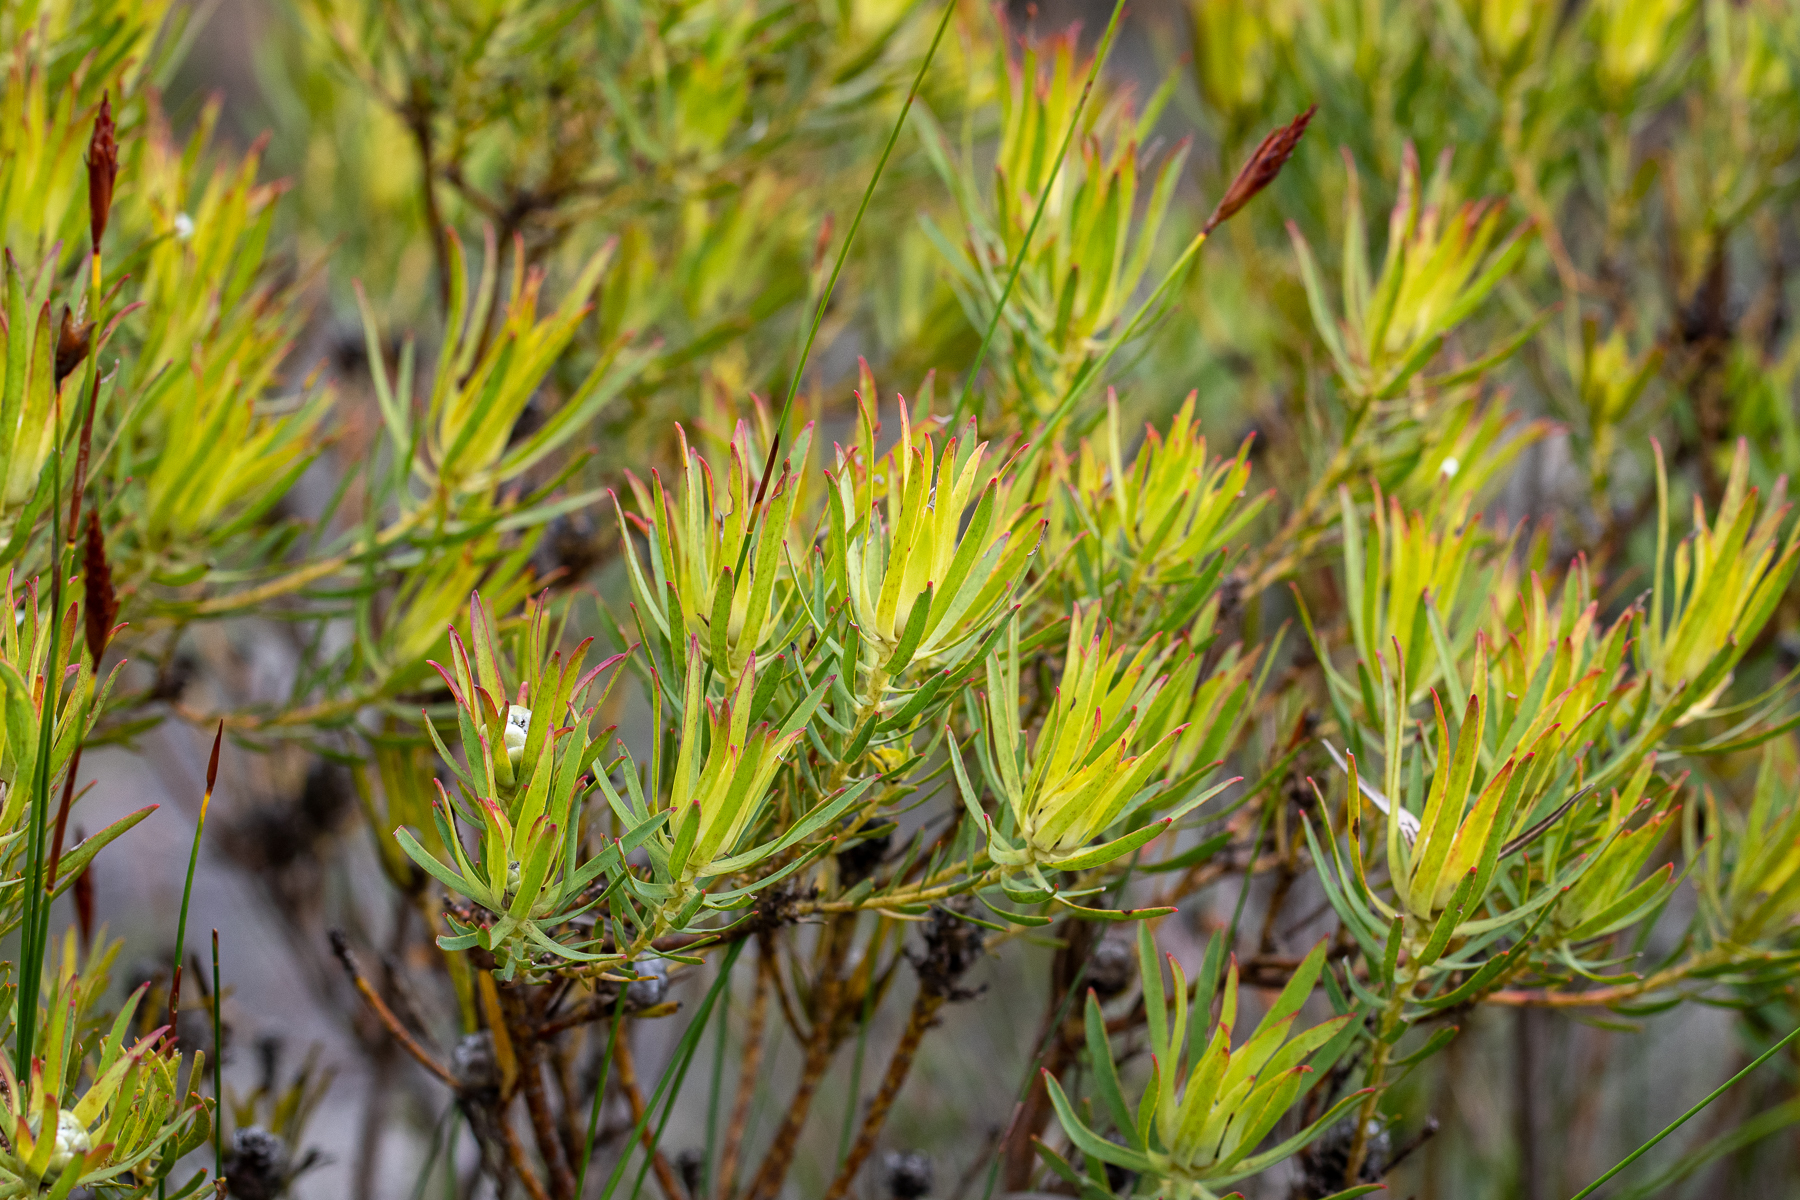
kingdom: Plantae
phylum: Tracheophyta
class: Magnoliopsida
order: Proteales
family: Proteaceae
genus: Leucadendron
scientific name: Leucadendron salignum
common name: Common sunshine conebush
